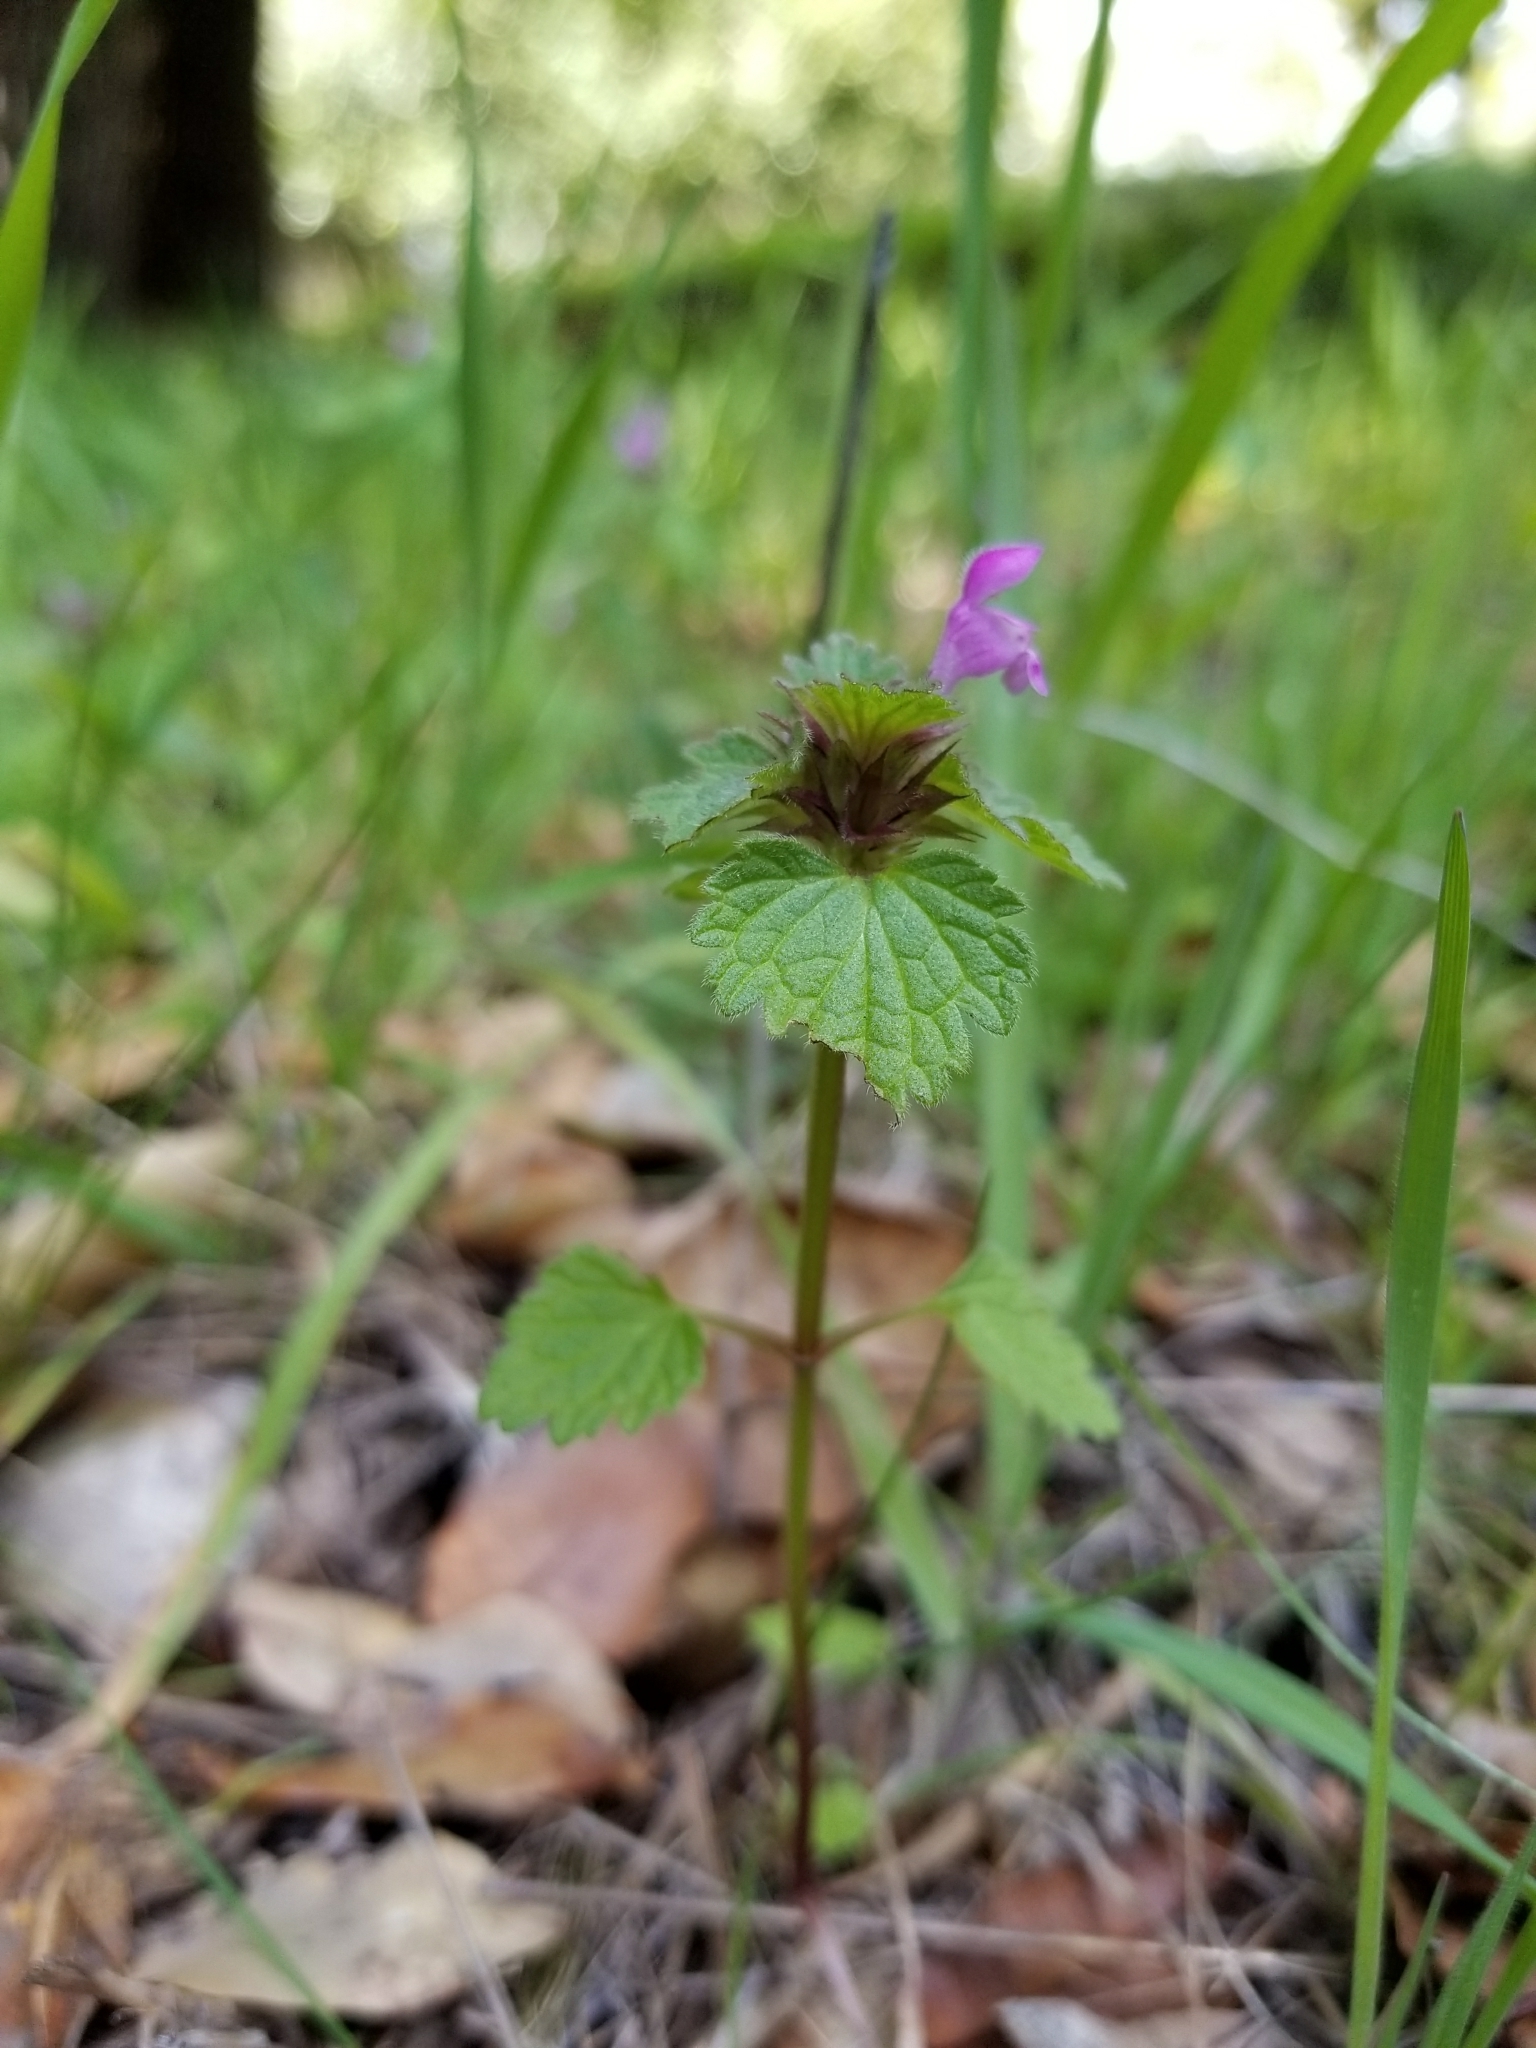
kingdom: Plantae
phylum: Tracheophyta
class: Magnoliopsida
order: Lamiales
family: Lamiaceae
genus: Lamium
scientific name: Lamium hybridum
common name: Cut-leaved dead-nettle
